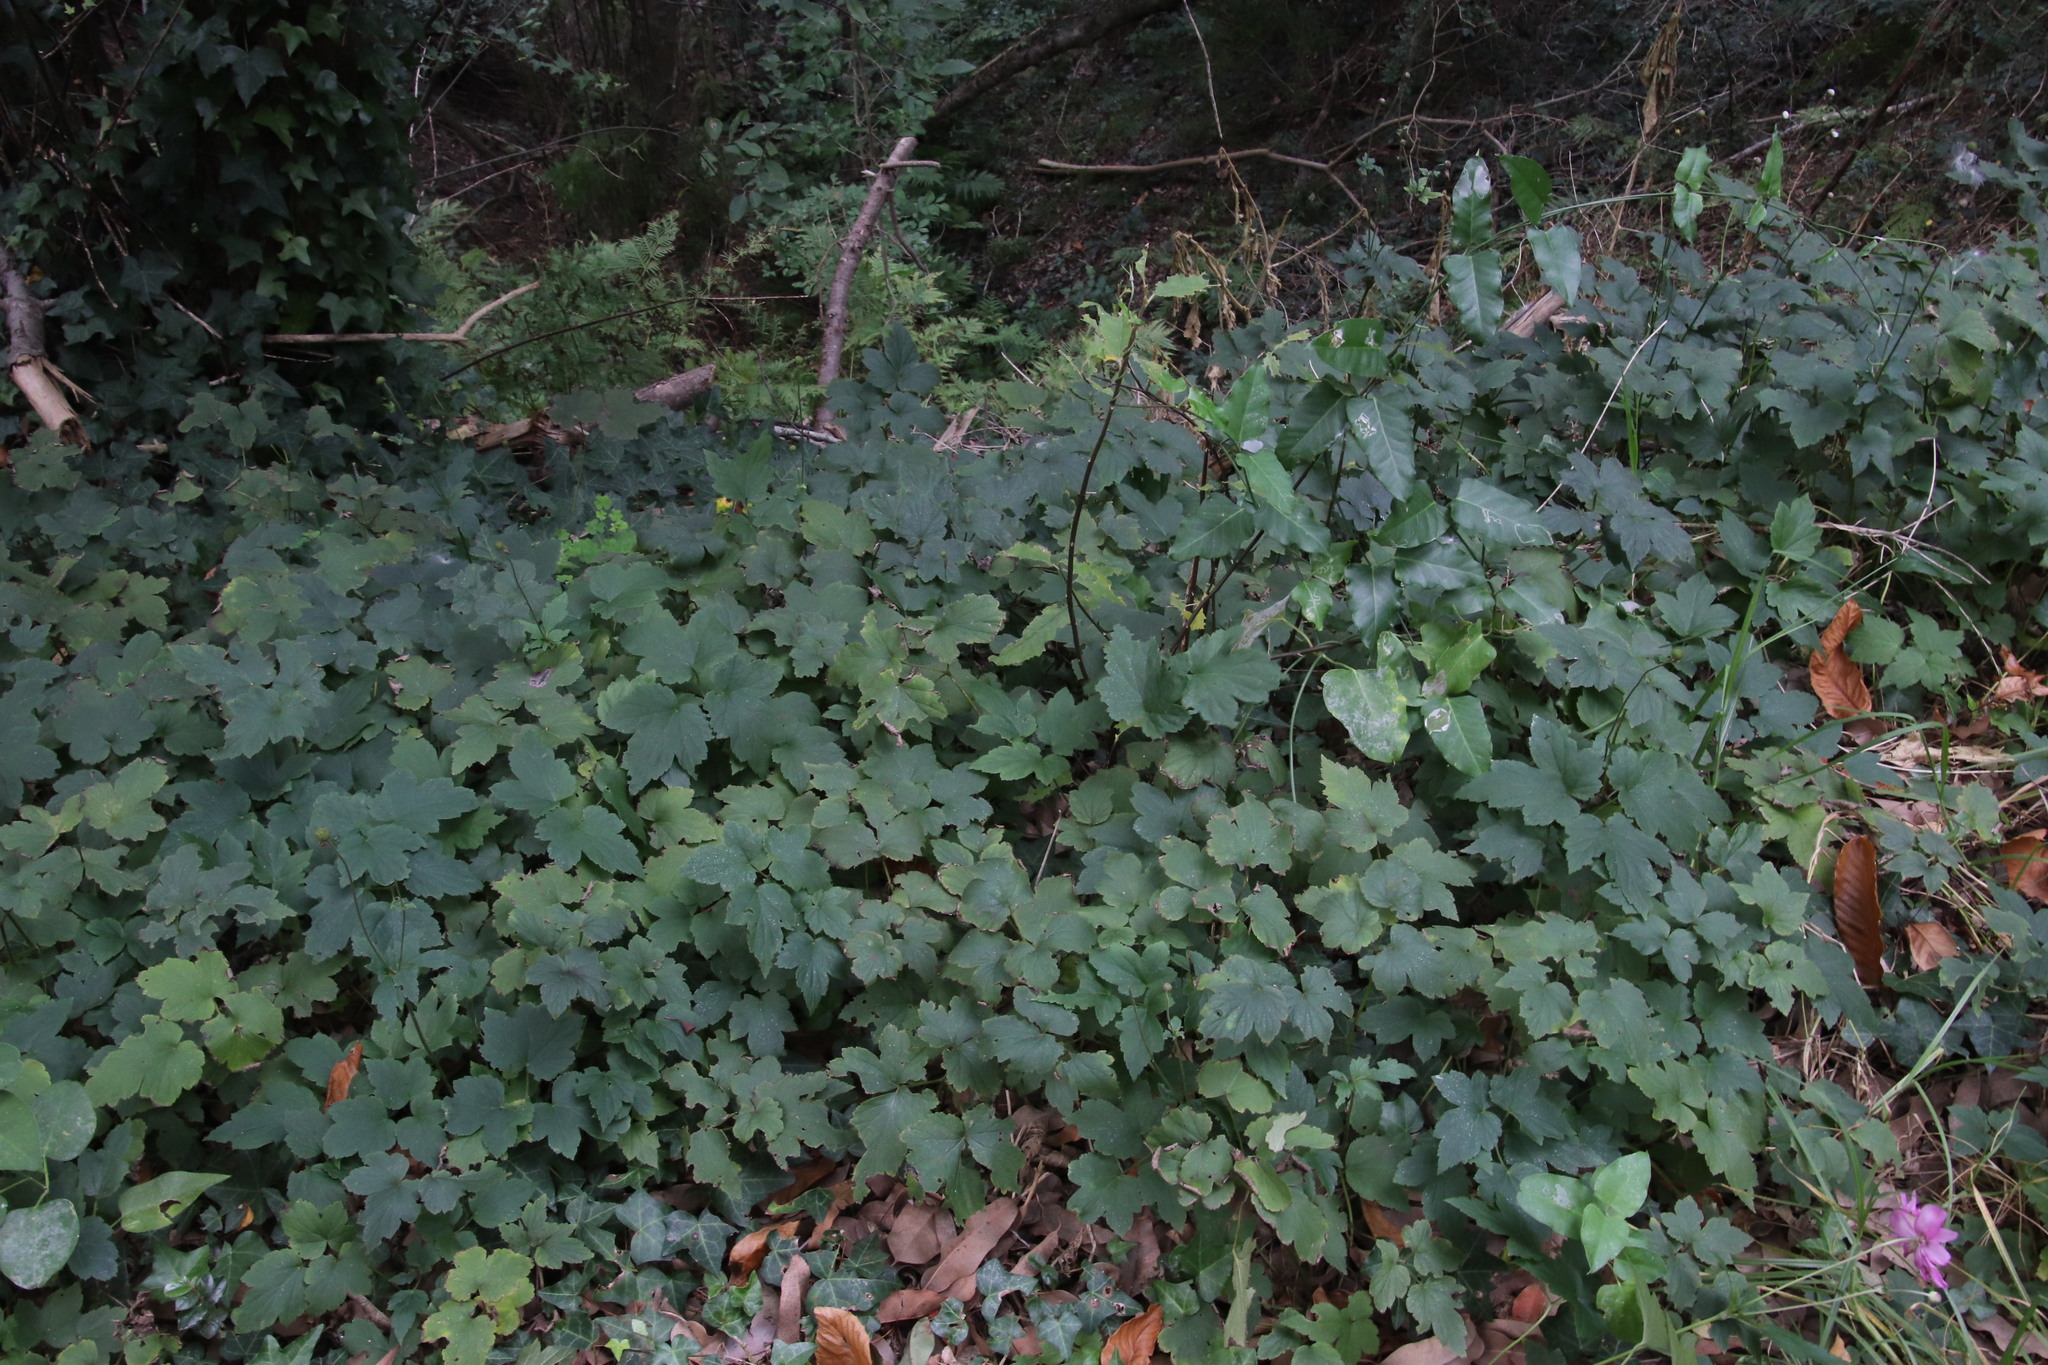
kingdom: Plantae
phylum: Tracheophyta
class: Magnoliopsida
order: Ranunculales
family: Ranunculaceae
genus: Eriocapitella
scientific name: Eriocapitella hybrida
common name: Japanese anemone
